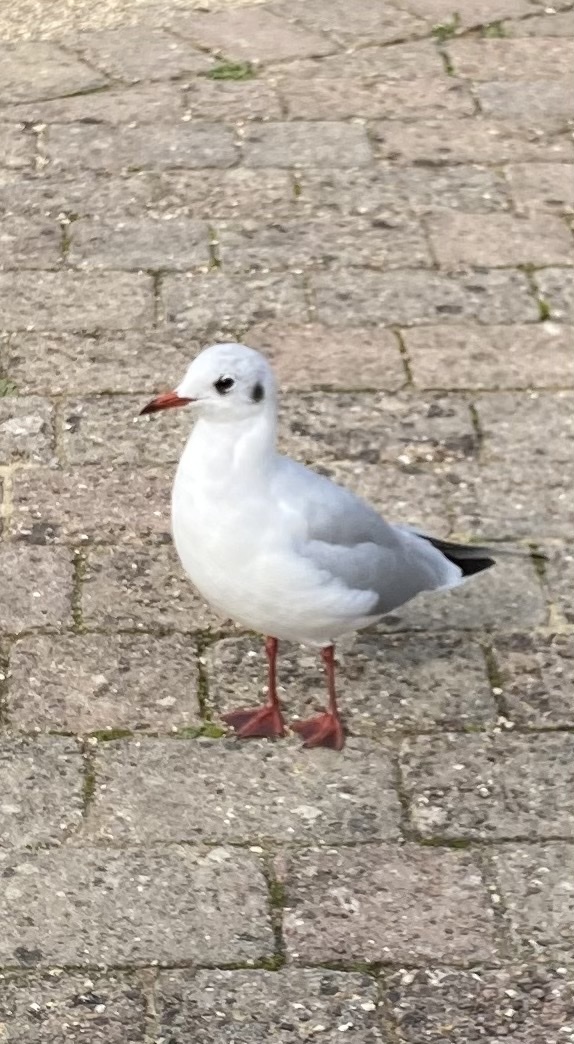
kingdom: Animalia
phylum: Chordata
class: Aves
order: Charadriiformes
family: Laridae
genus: Chroicocephalus
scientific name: Chroicocephalus ridibundus
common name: Black-headed gull
